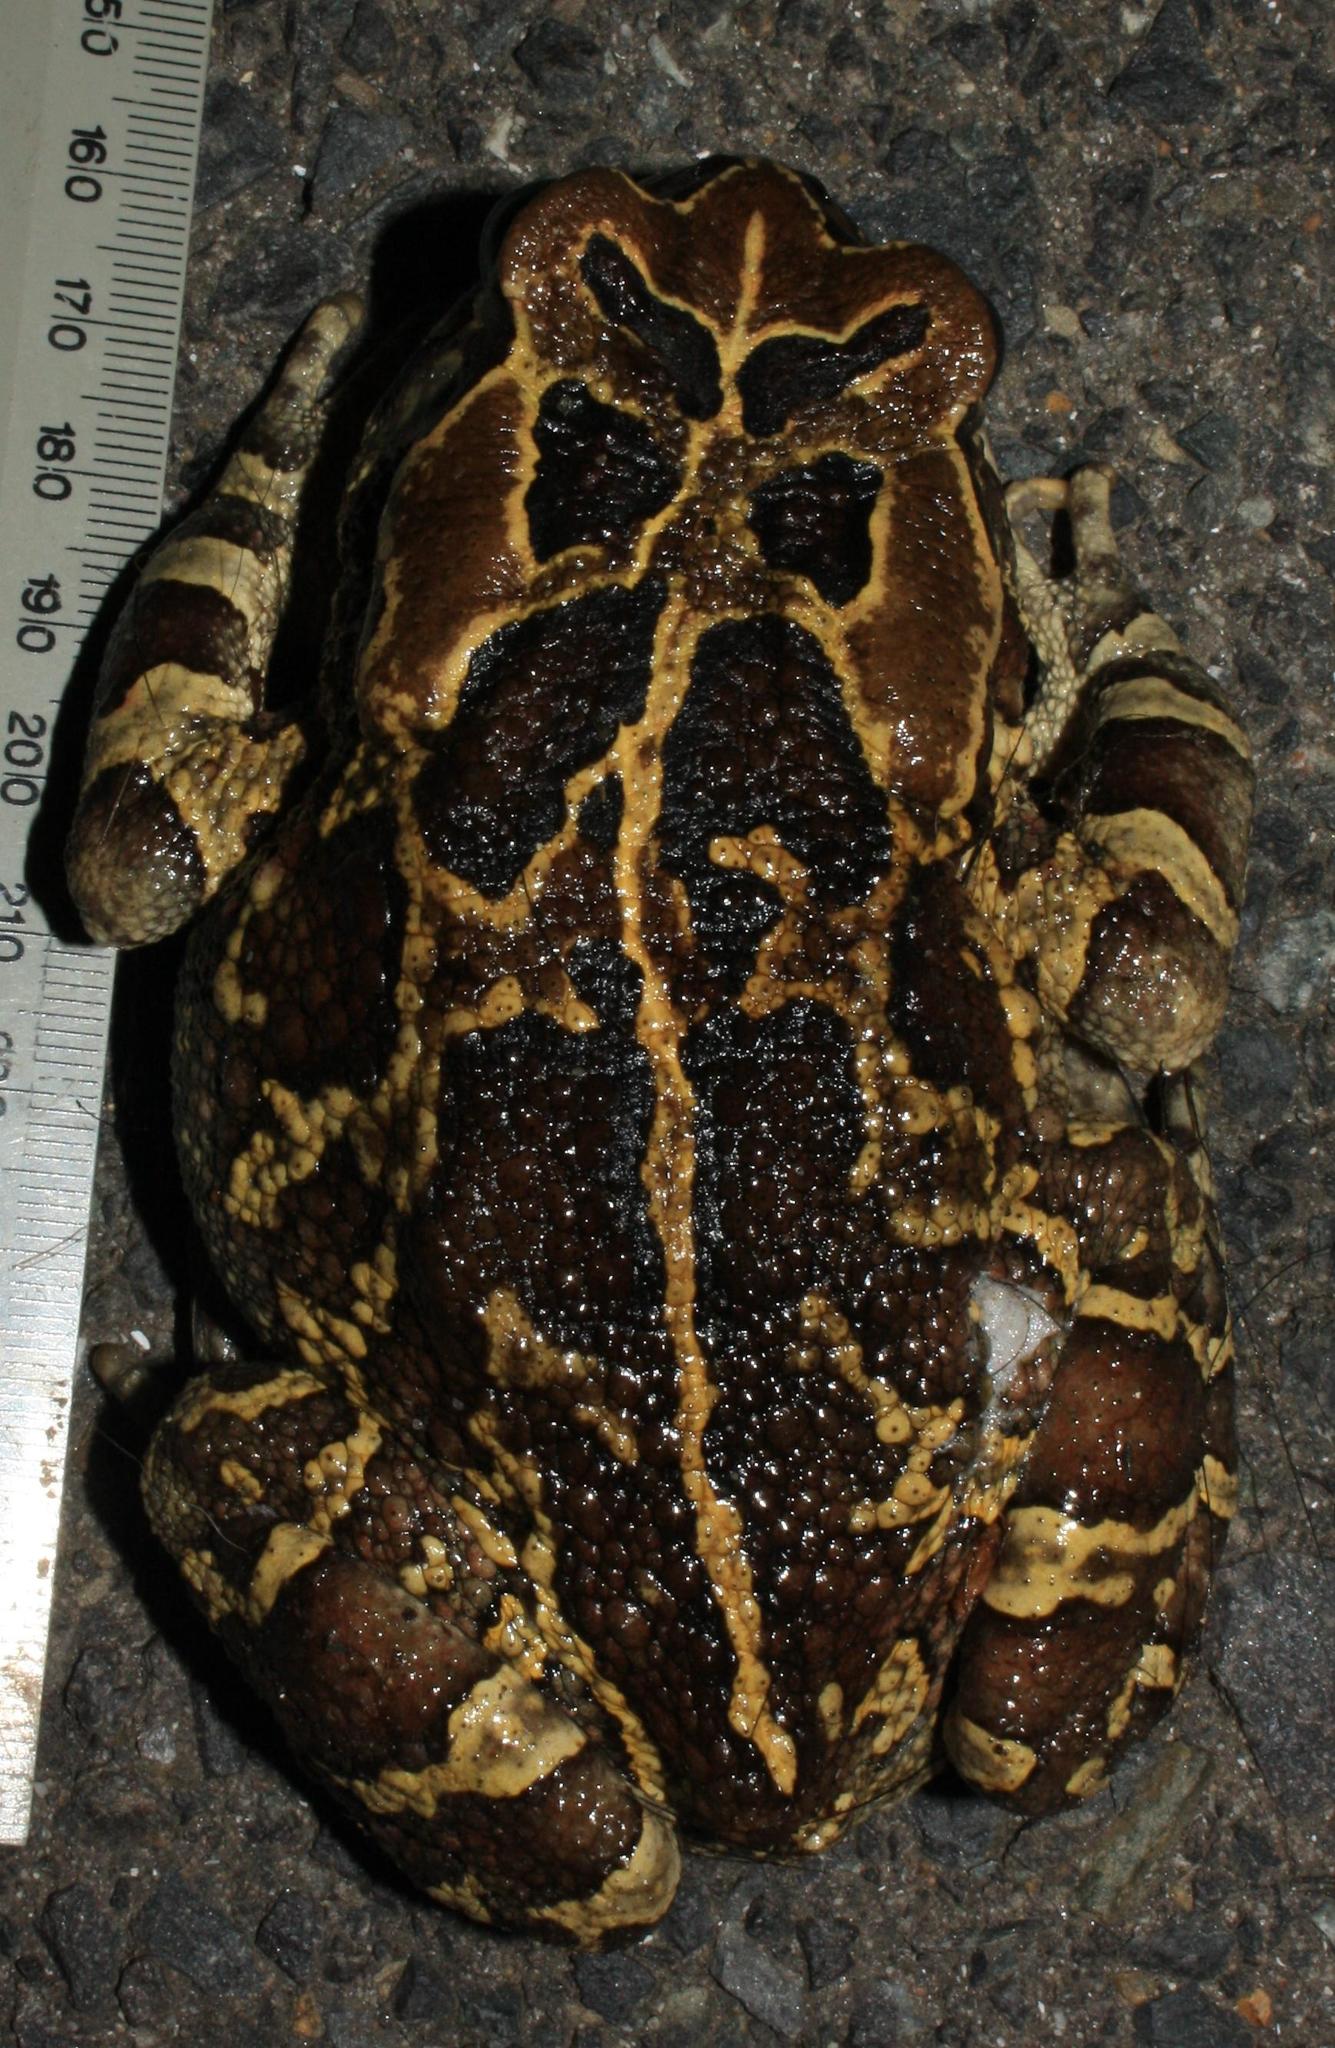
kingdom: Animalia
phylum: Chordata
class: Amphibia
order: Anura
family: Bufonidae
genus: Sclerophrys
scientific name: Sclerophrys pantherina
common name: Panther toad
